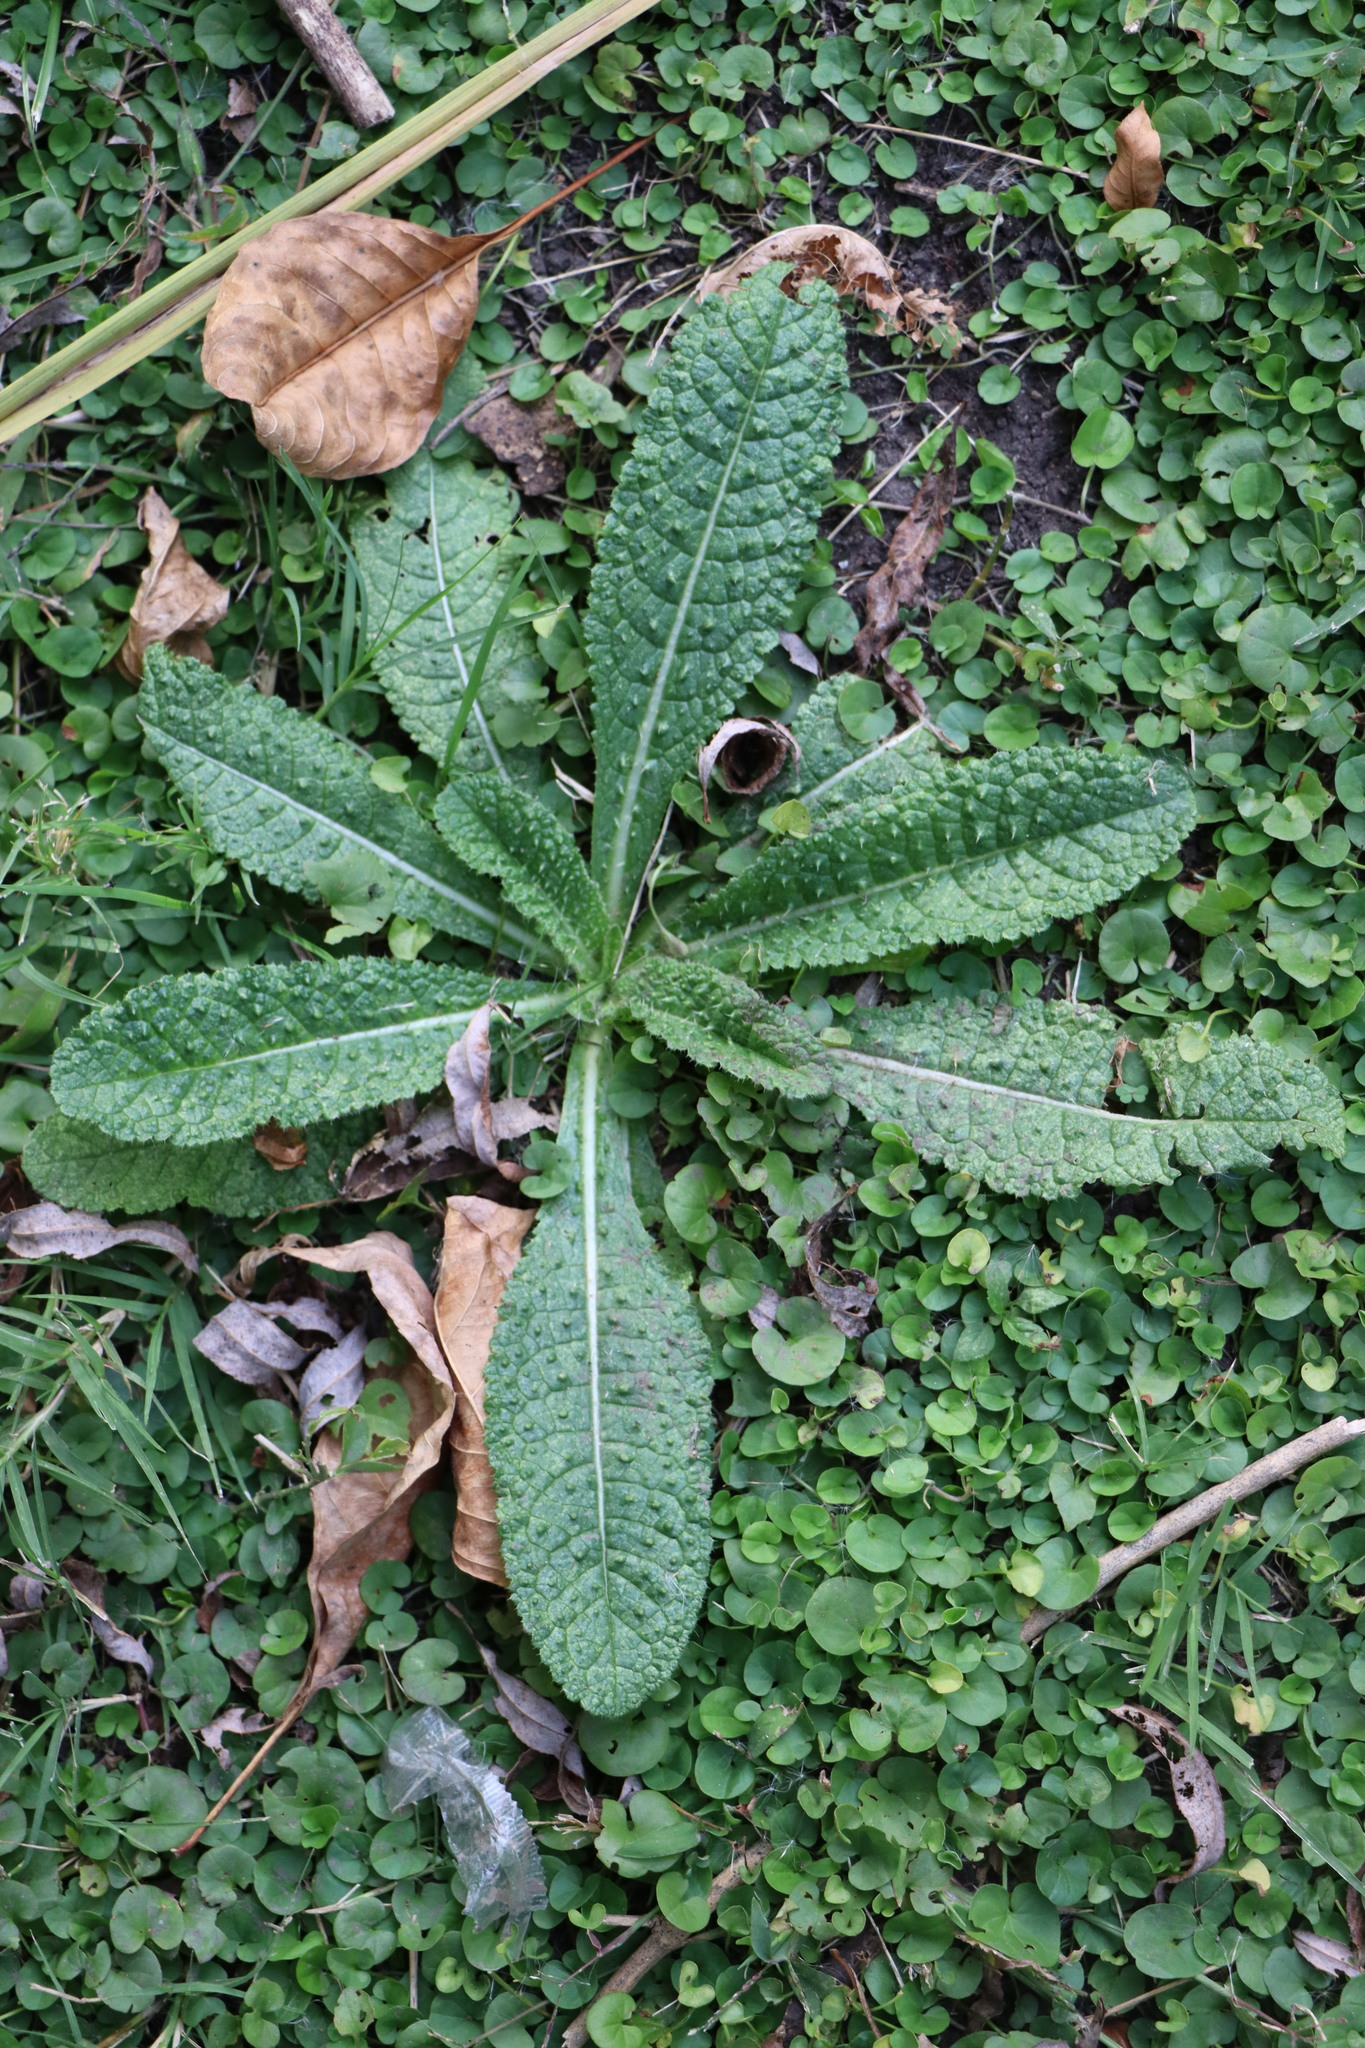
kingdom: Plantae
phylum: Tracheophyta
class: Magnoliopsida
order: Dipsacales
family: Caprifoliaceae
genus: Dipsacus
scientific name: Dipsacus fullonum
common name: Teasel
